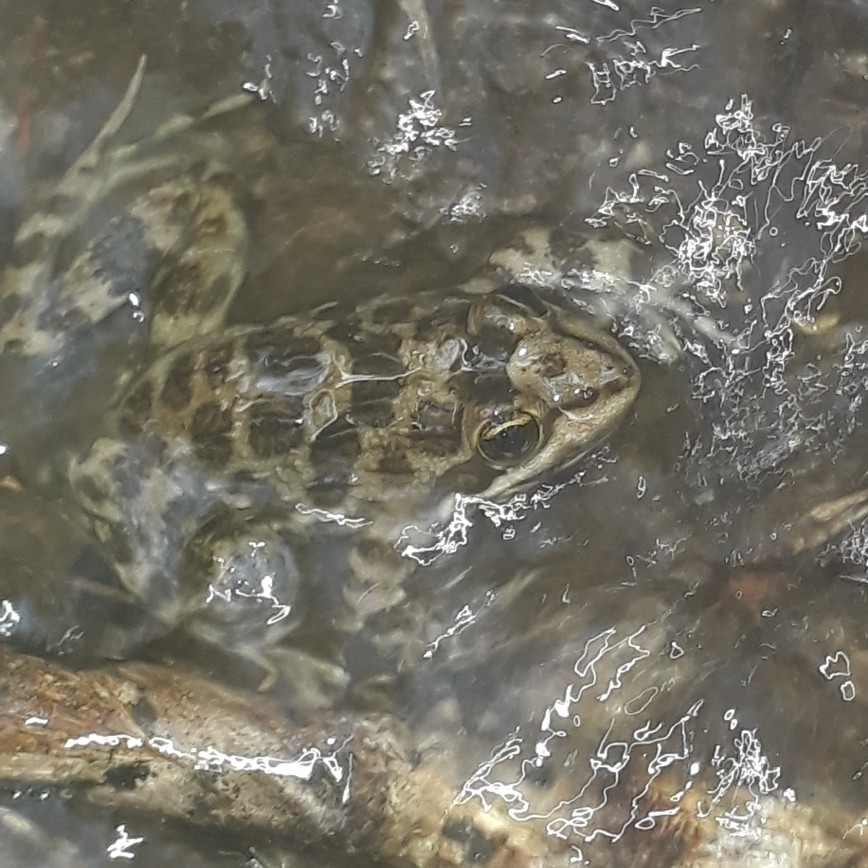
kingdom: Animalia
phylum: Chordata
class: Amphibia
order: Anura
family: Pyxicephalidae
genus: Amietia
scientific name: Amietia fuscigula
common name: Cape rana
